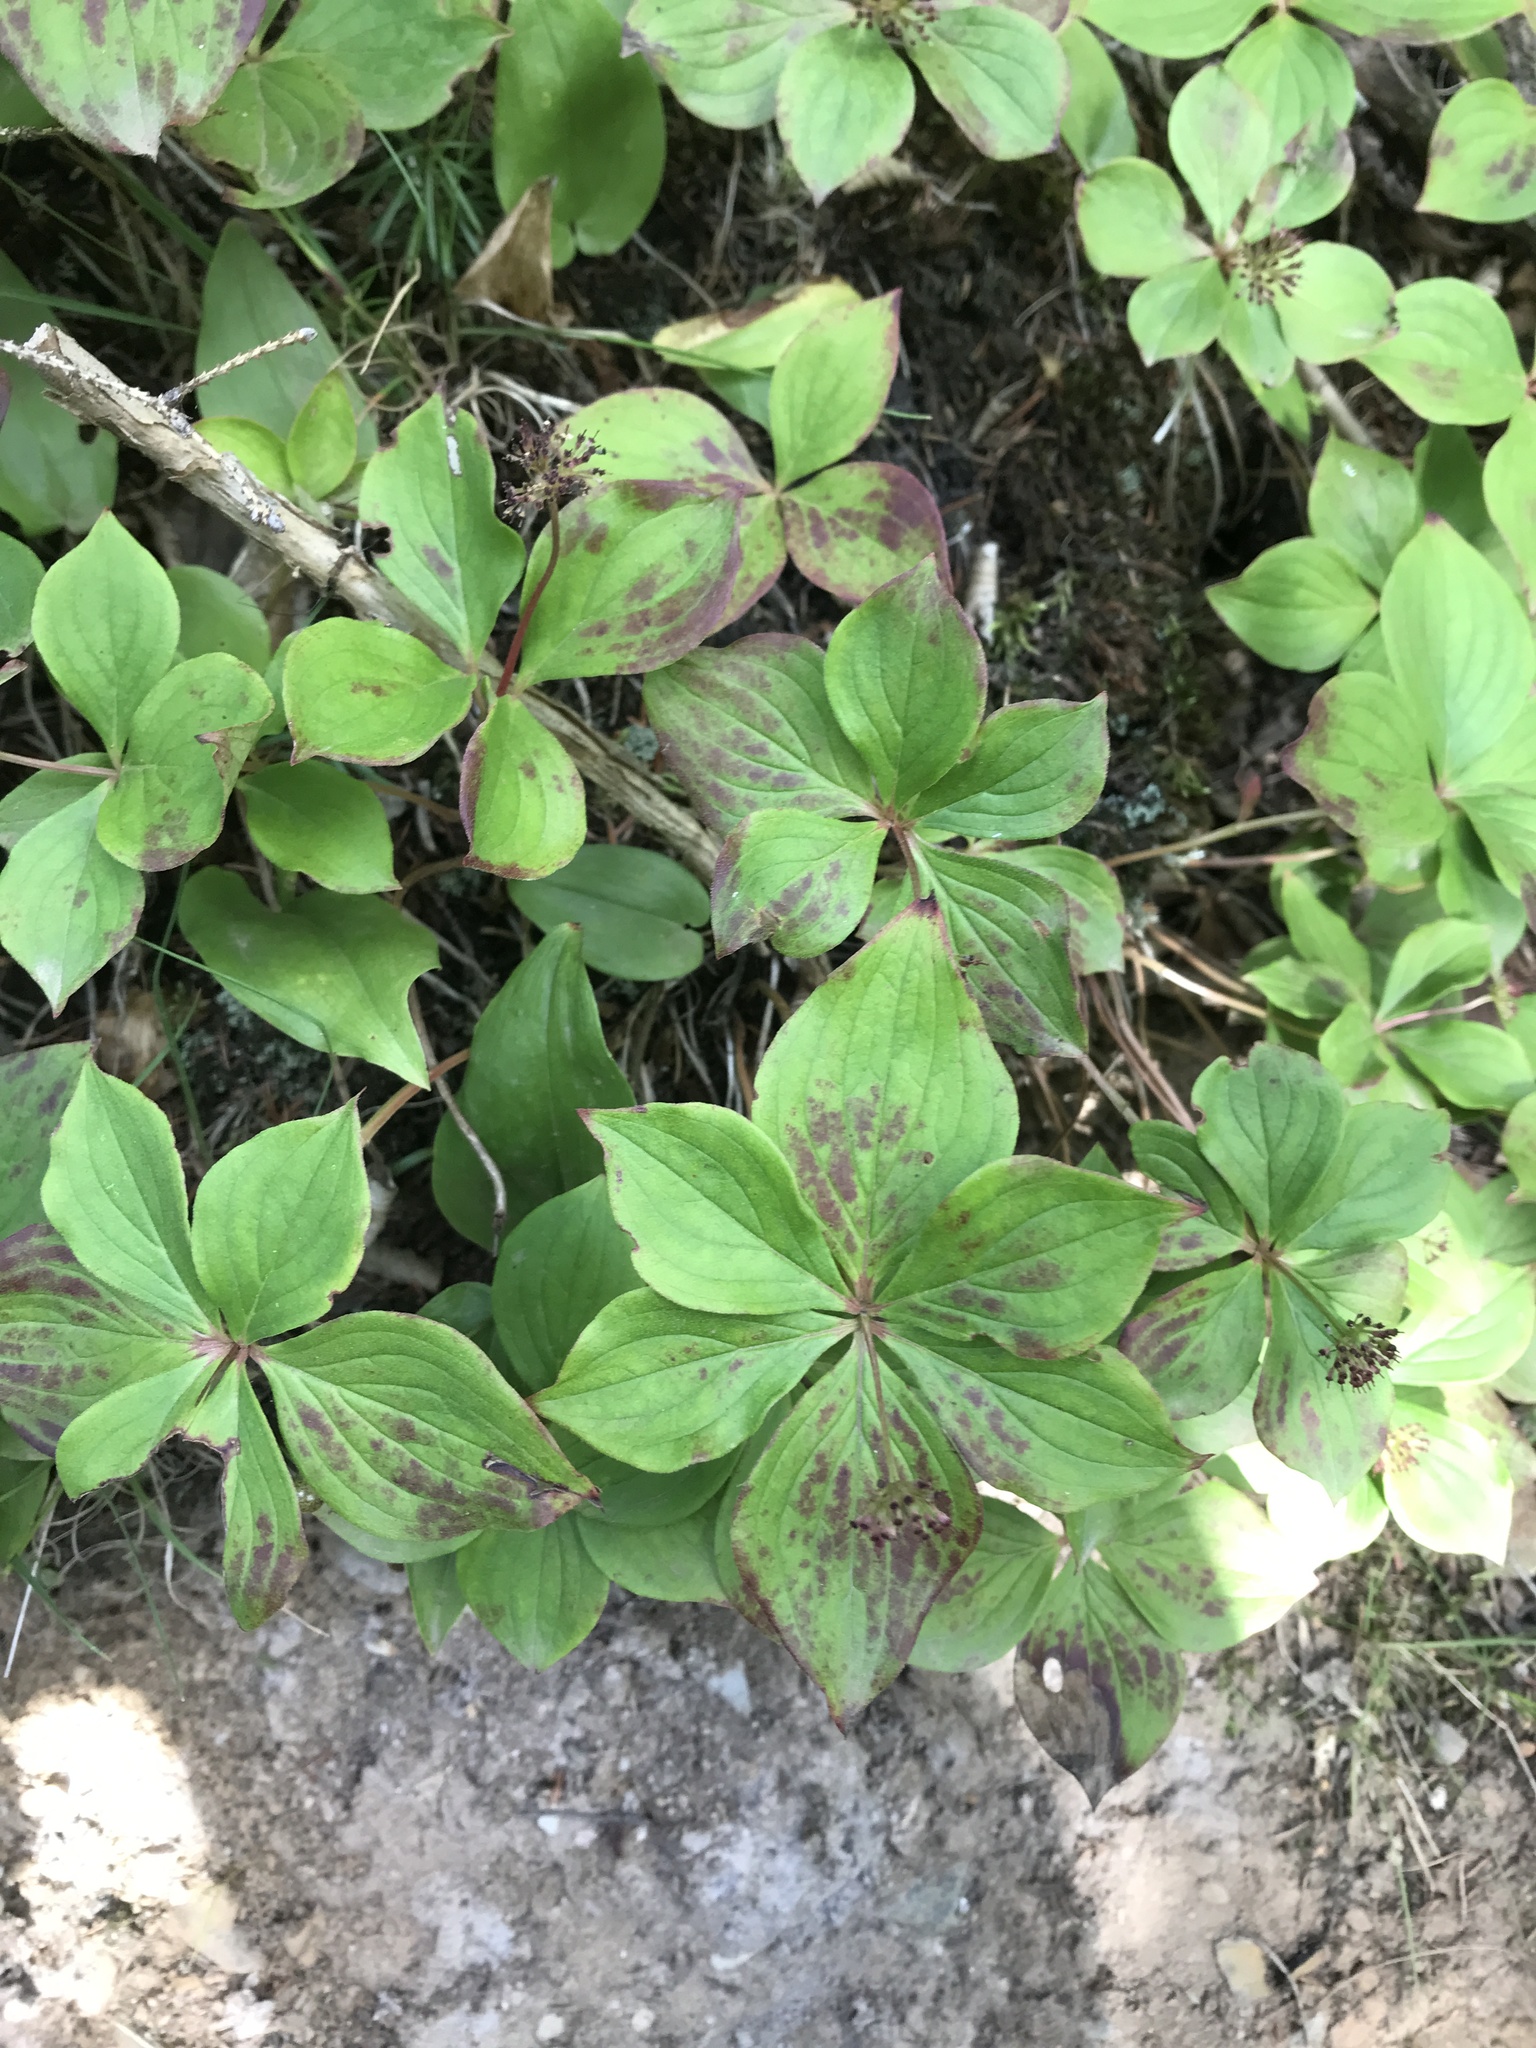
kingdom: Plantae
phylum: Tracheophyta
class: Magnoliopsida
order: Cornales
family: Cornaceae
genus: Cornus
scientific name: Cornus canadensis
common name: Creeping dogwood
